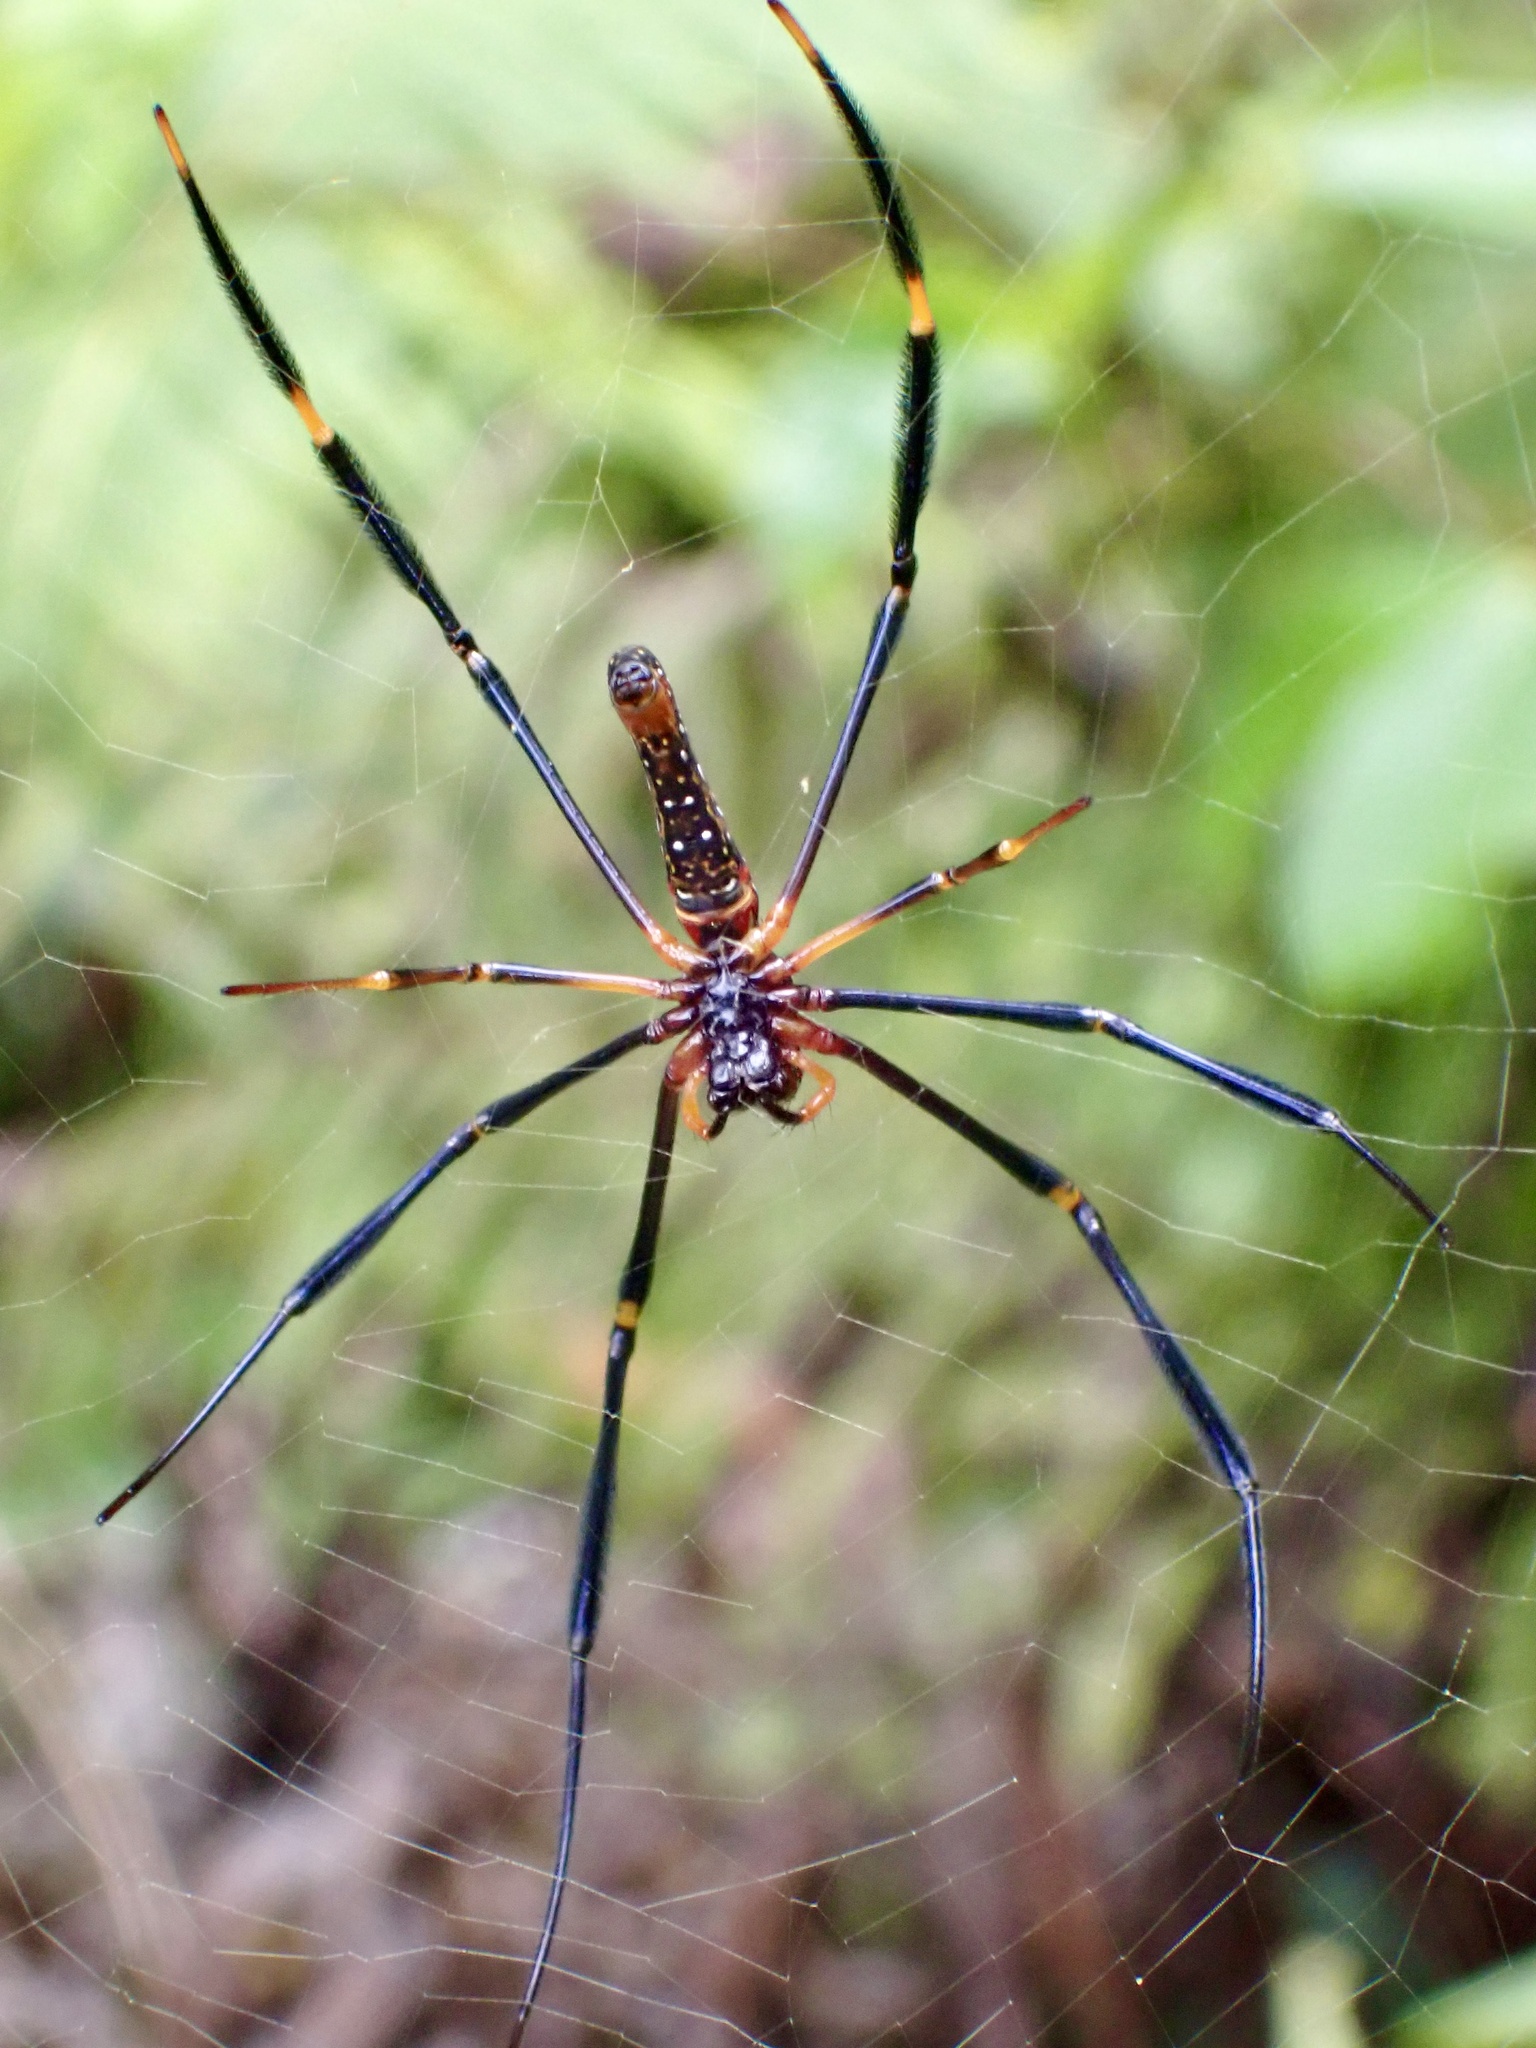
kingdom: Animalia
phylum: Arthropoda
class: Arachnida
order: Araneae
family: Araneidae
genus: Nephila
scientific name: Nephila pilipes
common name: Giant golden orb weaver
